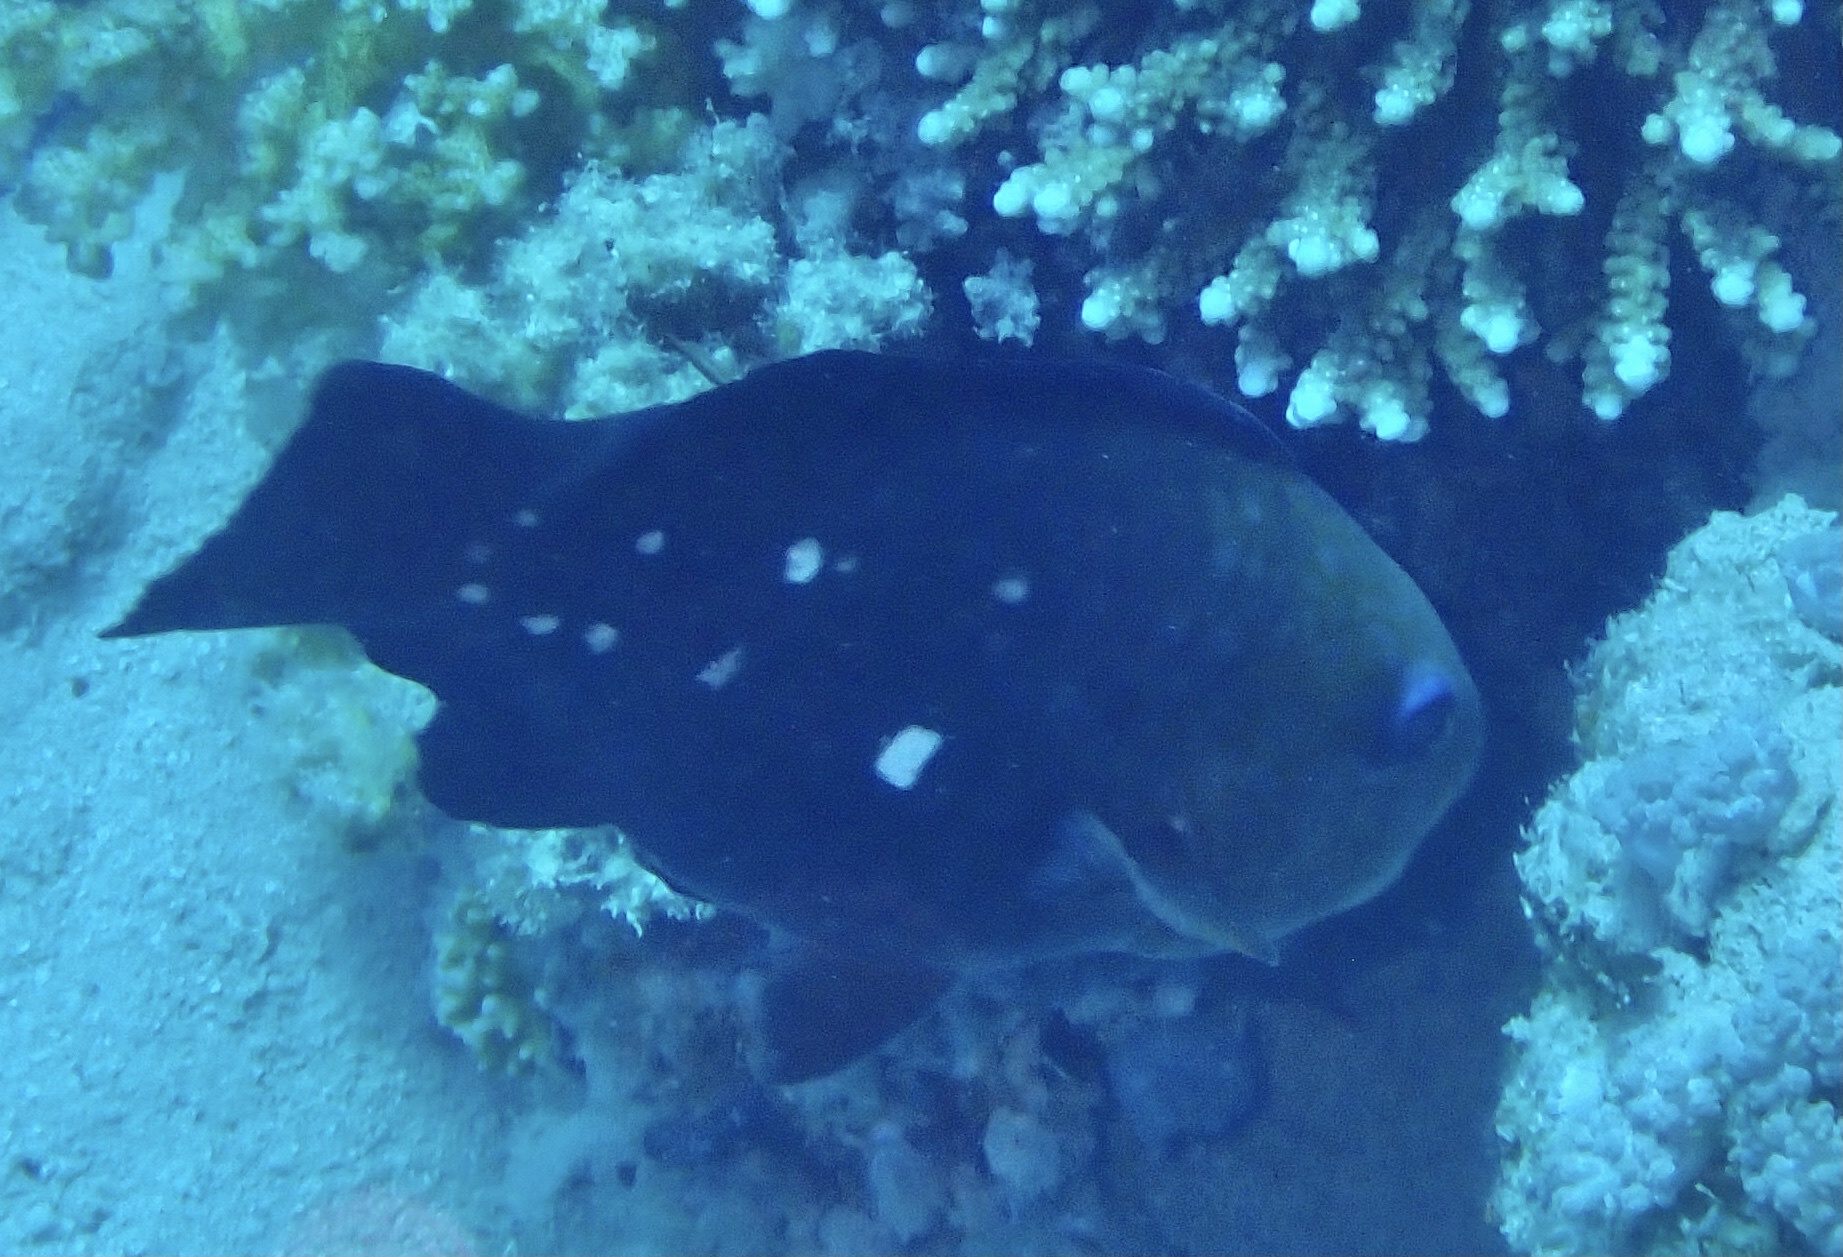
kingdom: Animalia
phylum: Chordata
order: Perciformes
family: Scaridae
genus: Chlorurus
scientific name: Chlorurus sordidus
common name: Bullethead parrotfish
